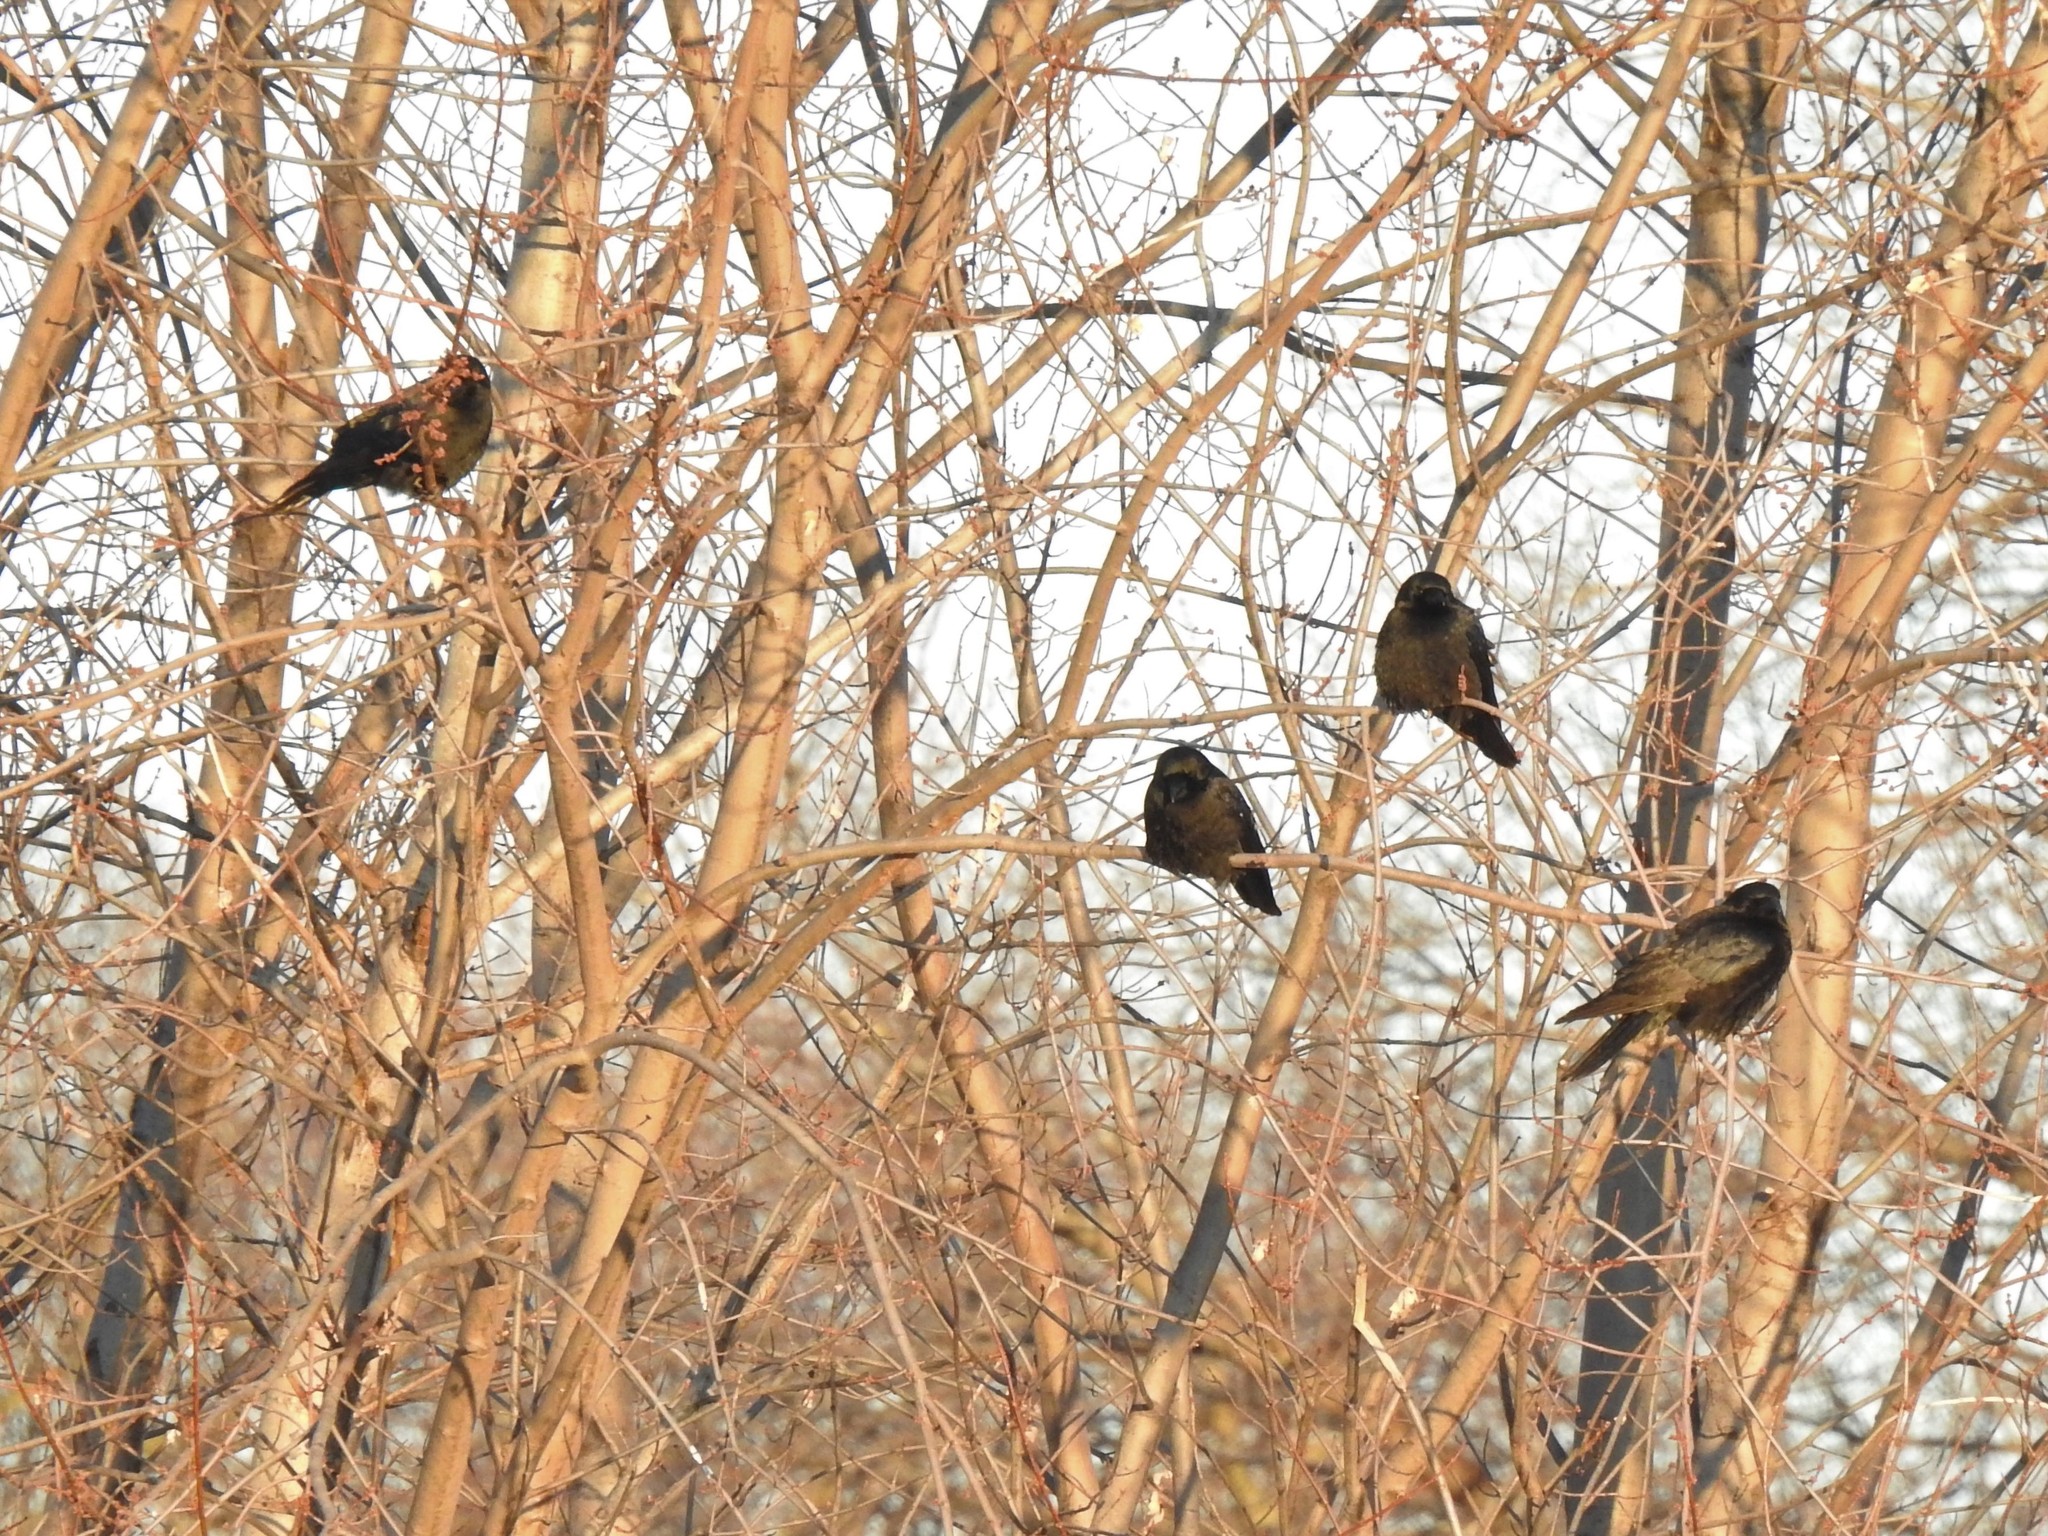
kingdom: Animalia
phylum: Chordata
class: Aves
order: Passeriformes
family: Corvidae
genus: Corvus
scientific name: Corvus brachyrhynchos
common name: American crow
